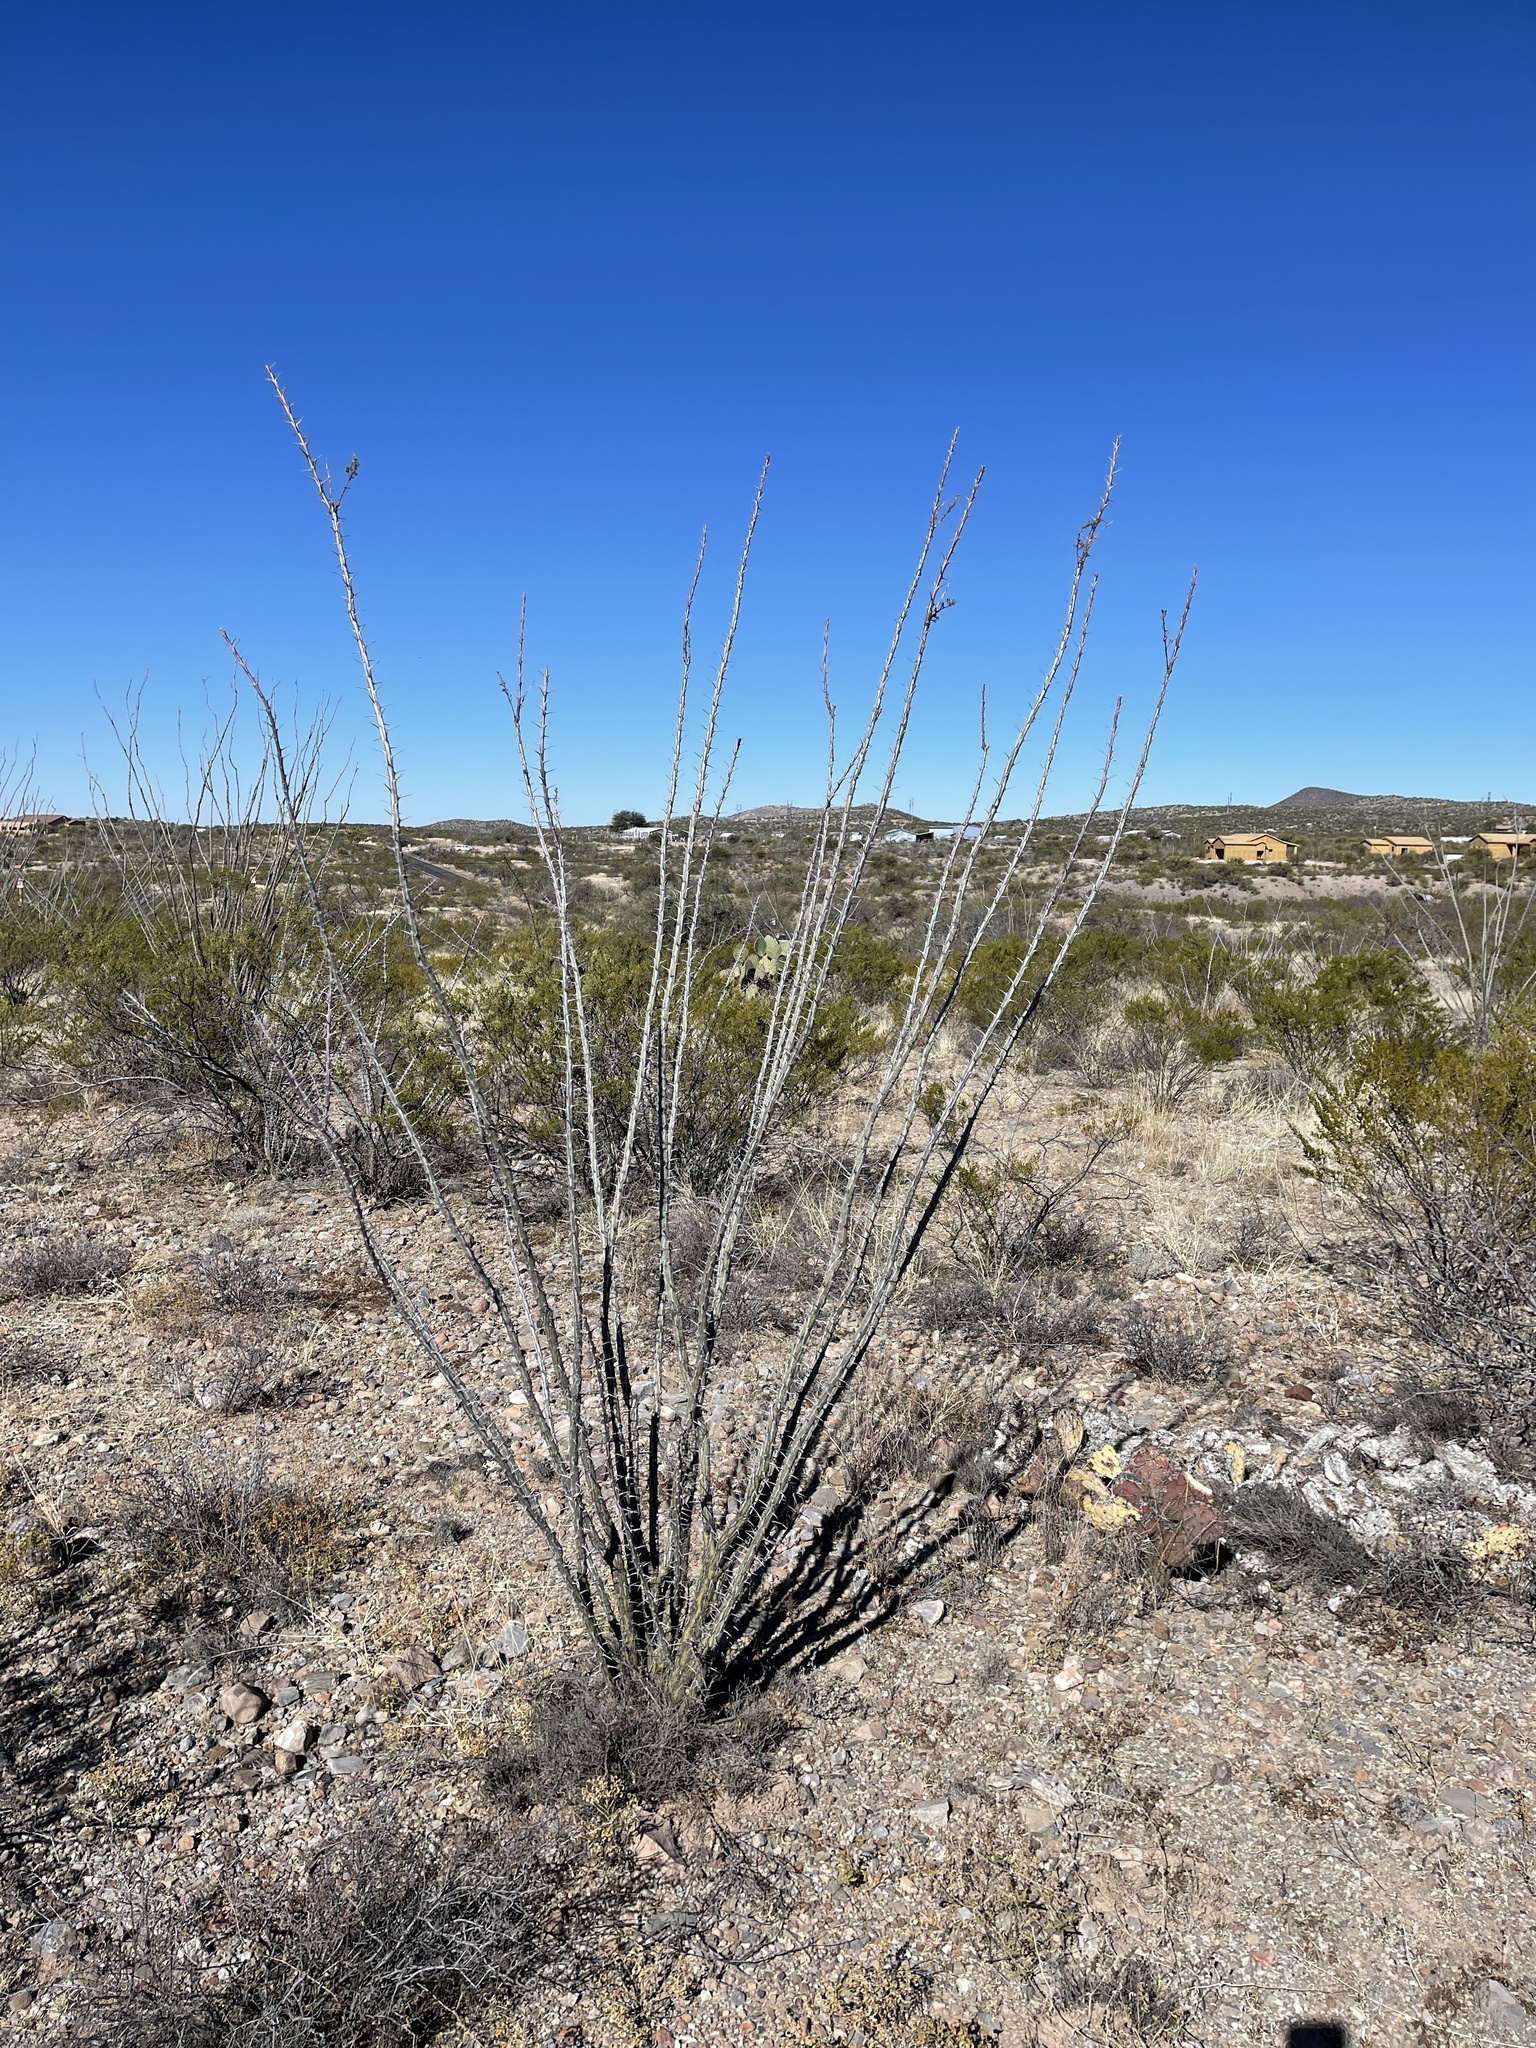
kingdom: Plantae
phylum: Tracheophyta
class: Magnoliopsida
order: Ericales
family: Fouquieriaceae
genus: Fouquieria
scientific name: Fouquieria splendens
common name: Vine-cactus
